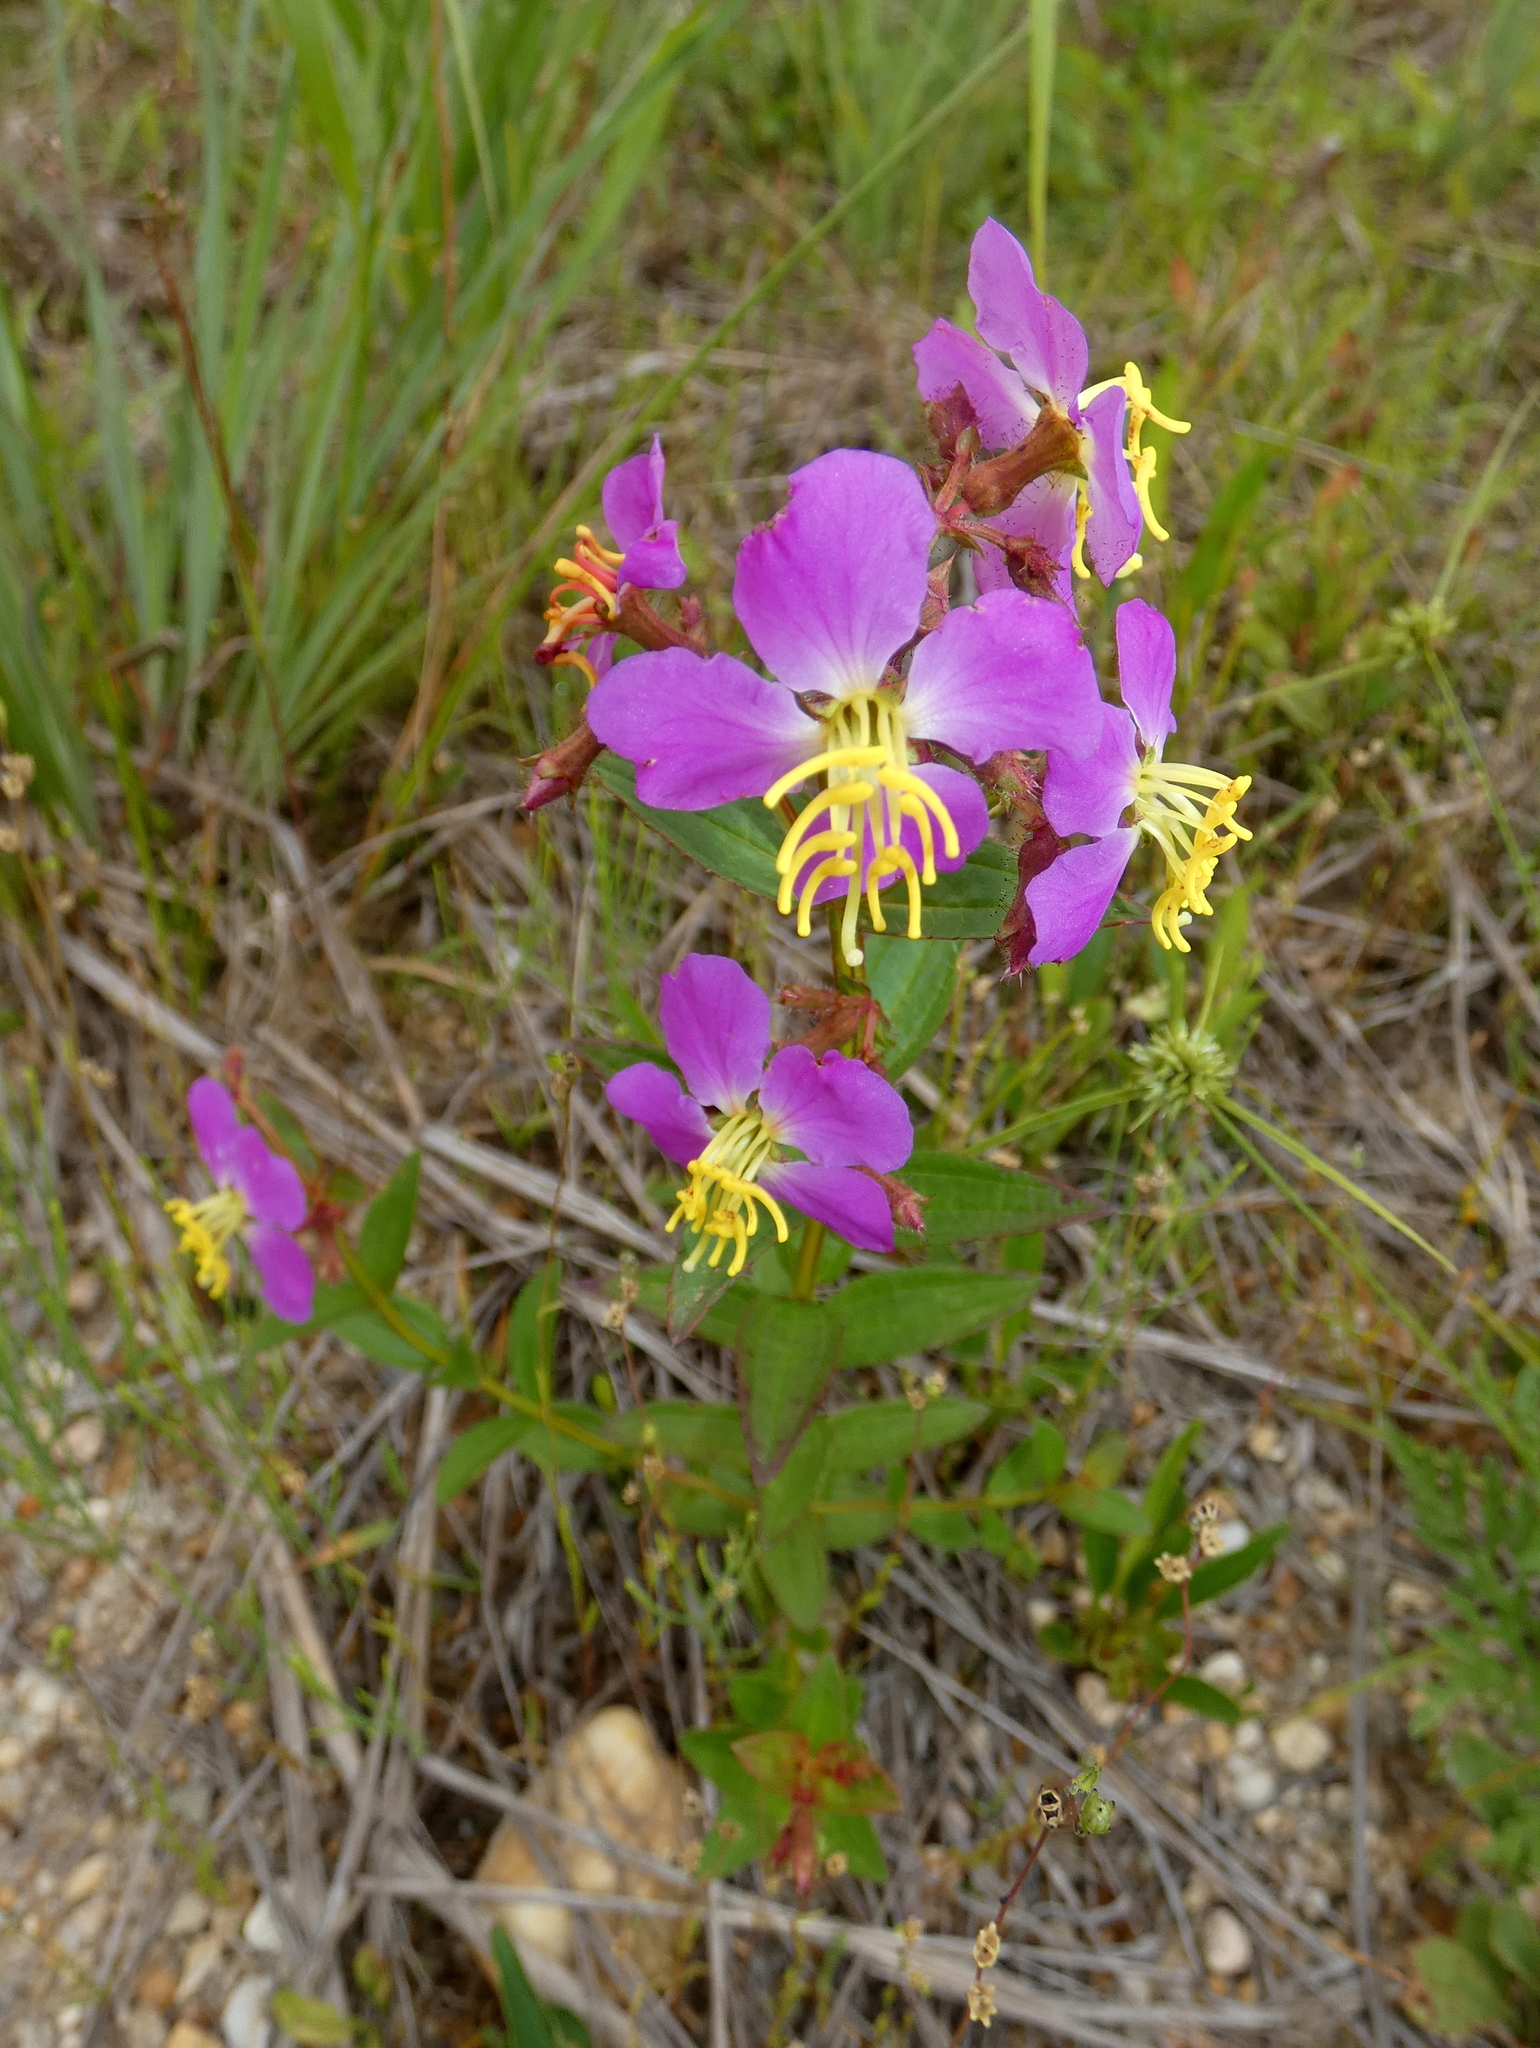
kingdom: Plantae
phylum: Tracheophyta
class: Magnoliopsida
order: Myrtales
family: Melastomataceae
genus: Rhexia
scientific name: Rhexia virginica
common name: Common meadow beauty
